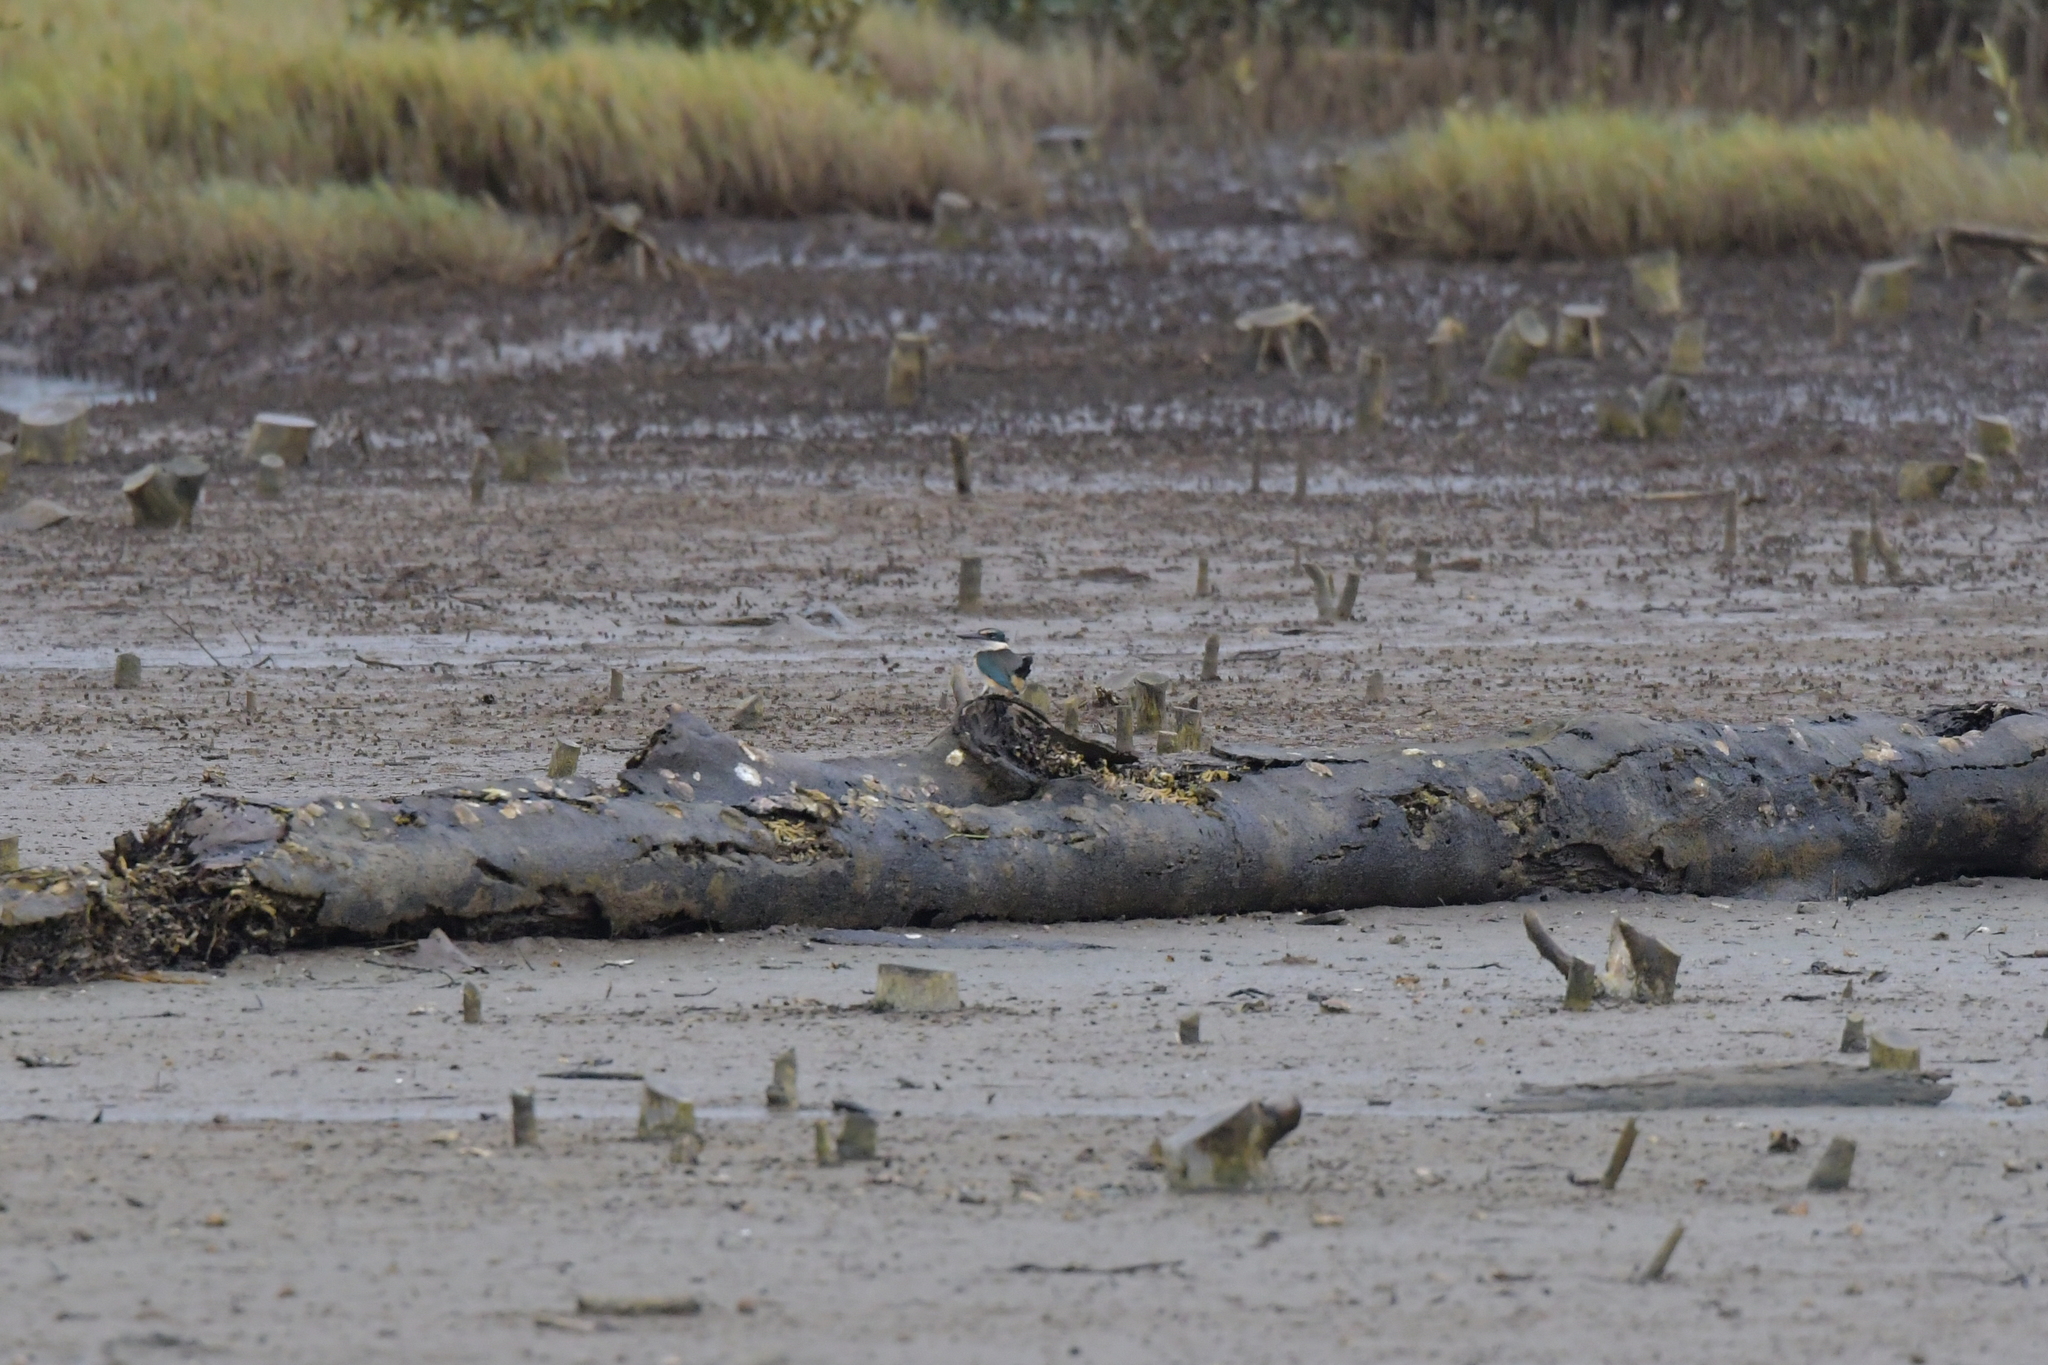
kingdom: Animalia
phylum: Chordata
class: Aves
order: Coraciiformes
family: Alcedinidae
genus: Todiramphus
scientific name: Todiramphus sanctus
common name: Sacred kingfisher
